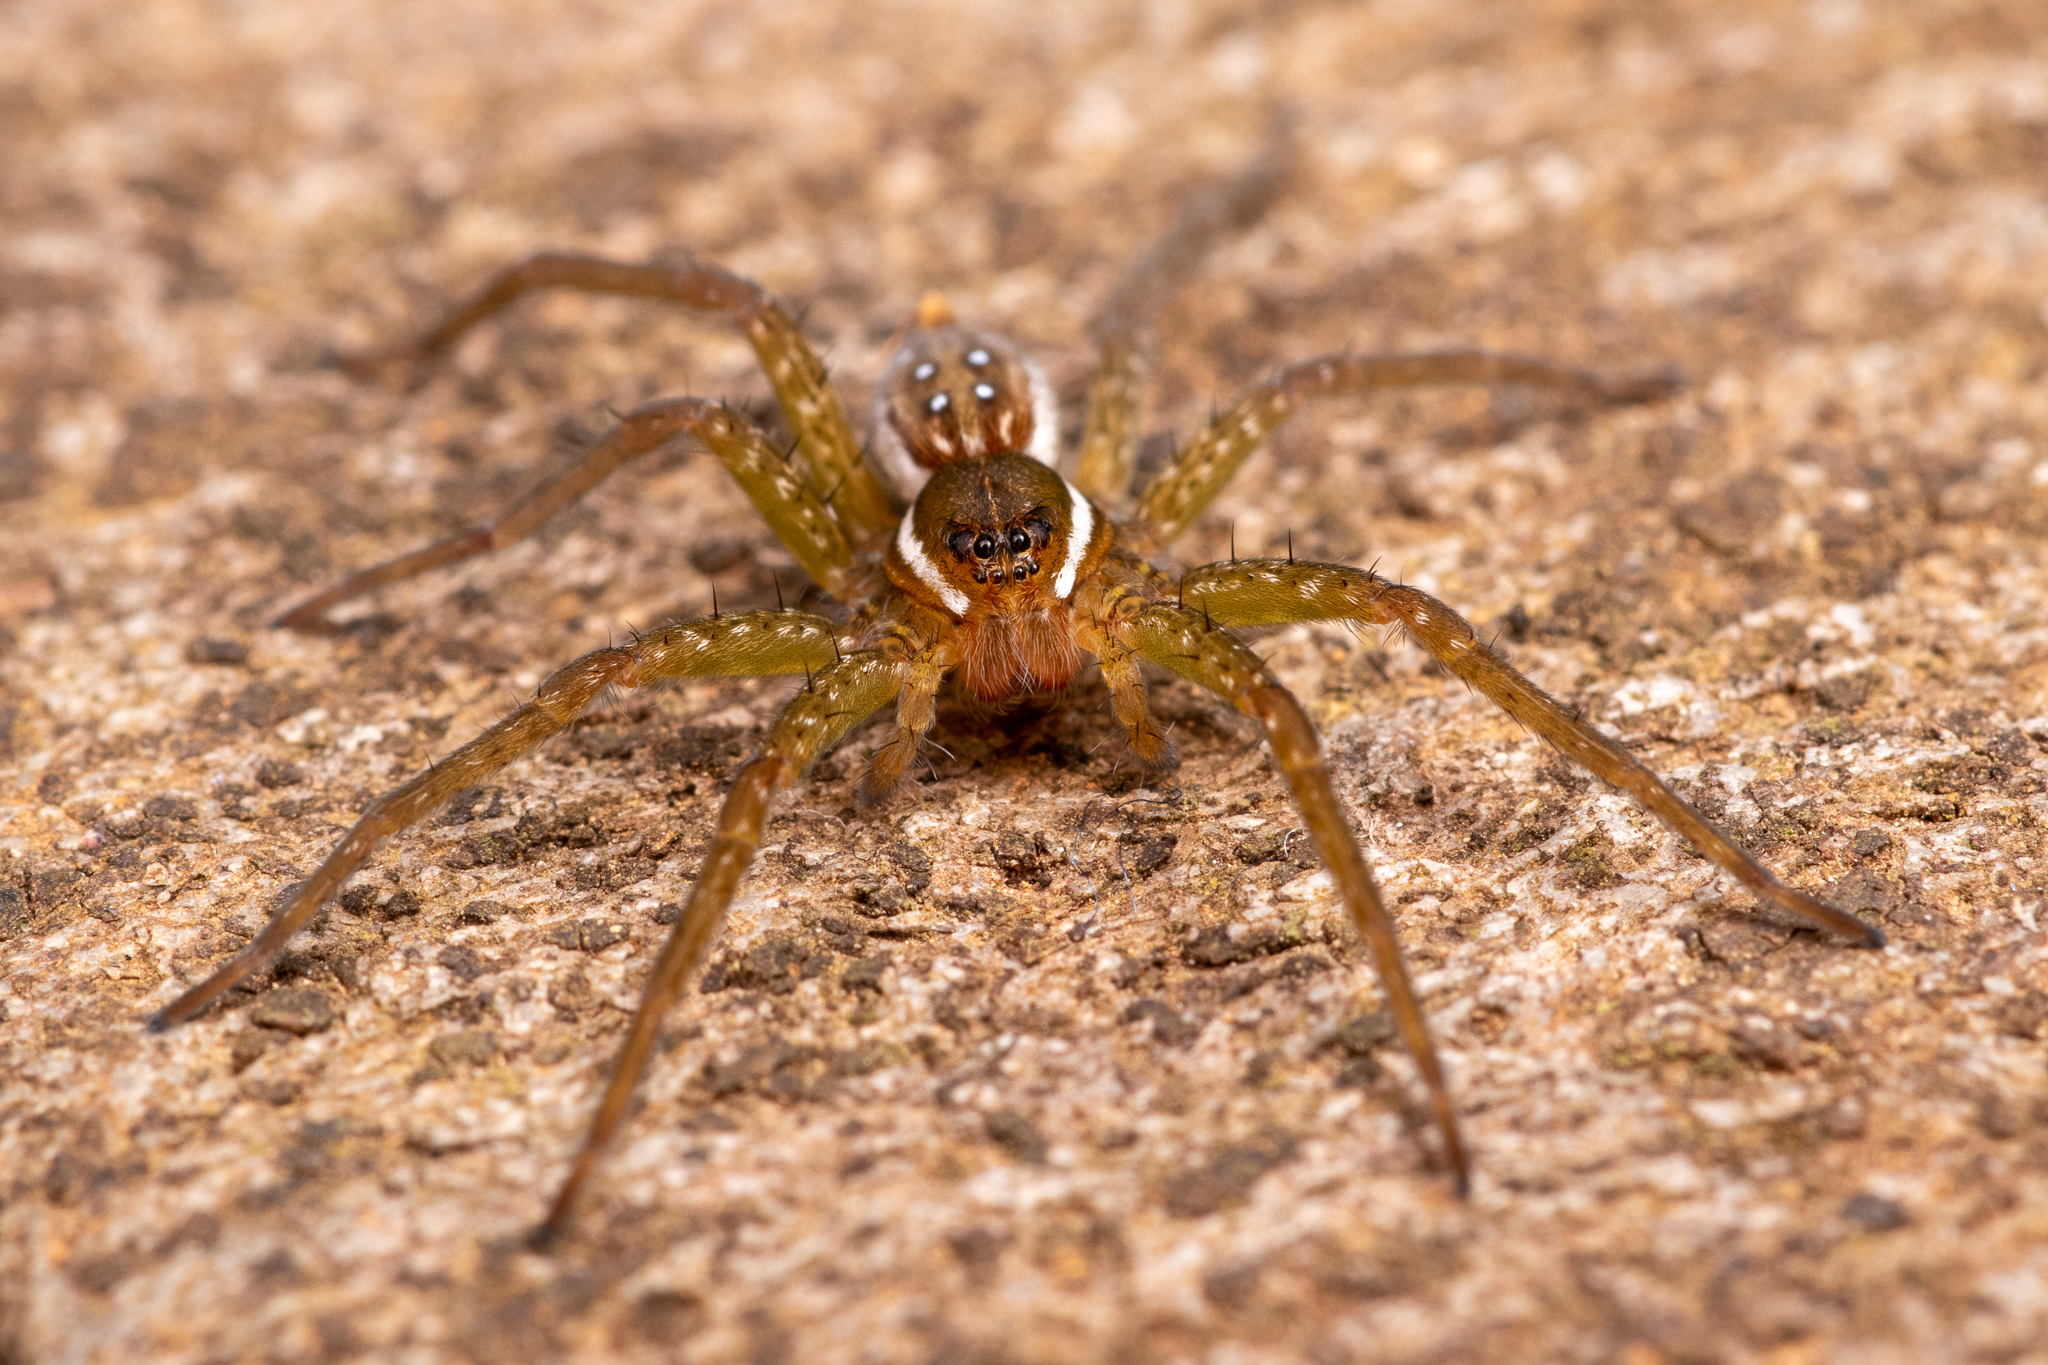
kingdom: Animalia
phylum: Arthropoda
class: Arachnida
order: Araneae
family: Pisauridae
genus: Dolomedes
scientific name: Dolomedes triton
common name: Six-spotted fishing spider
